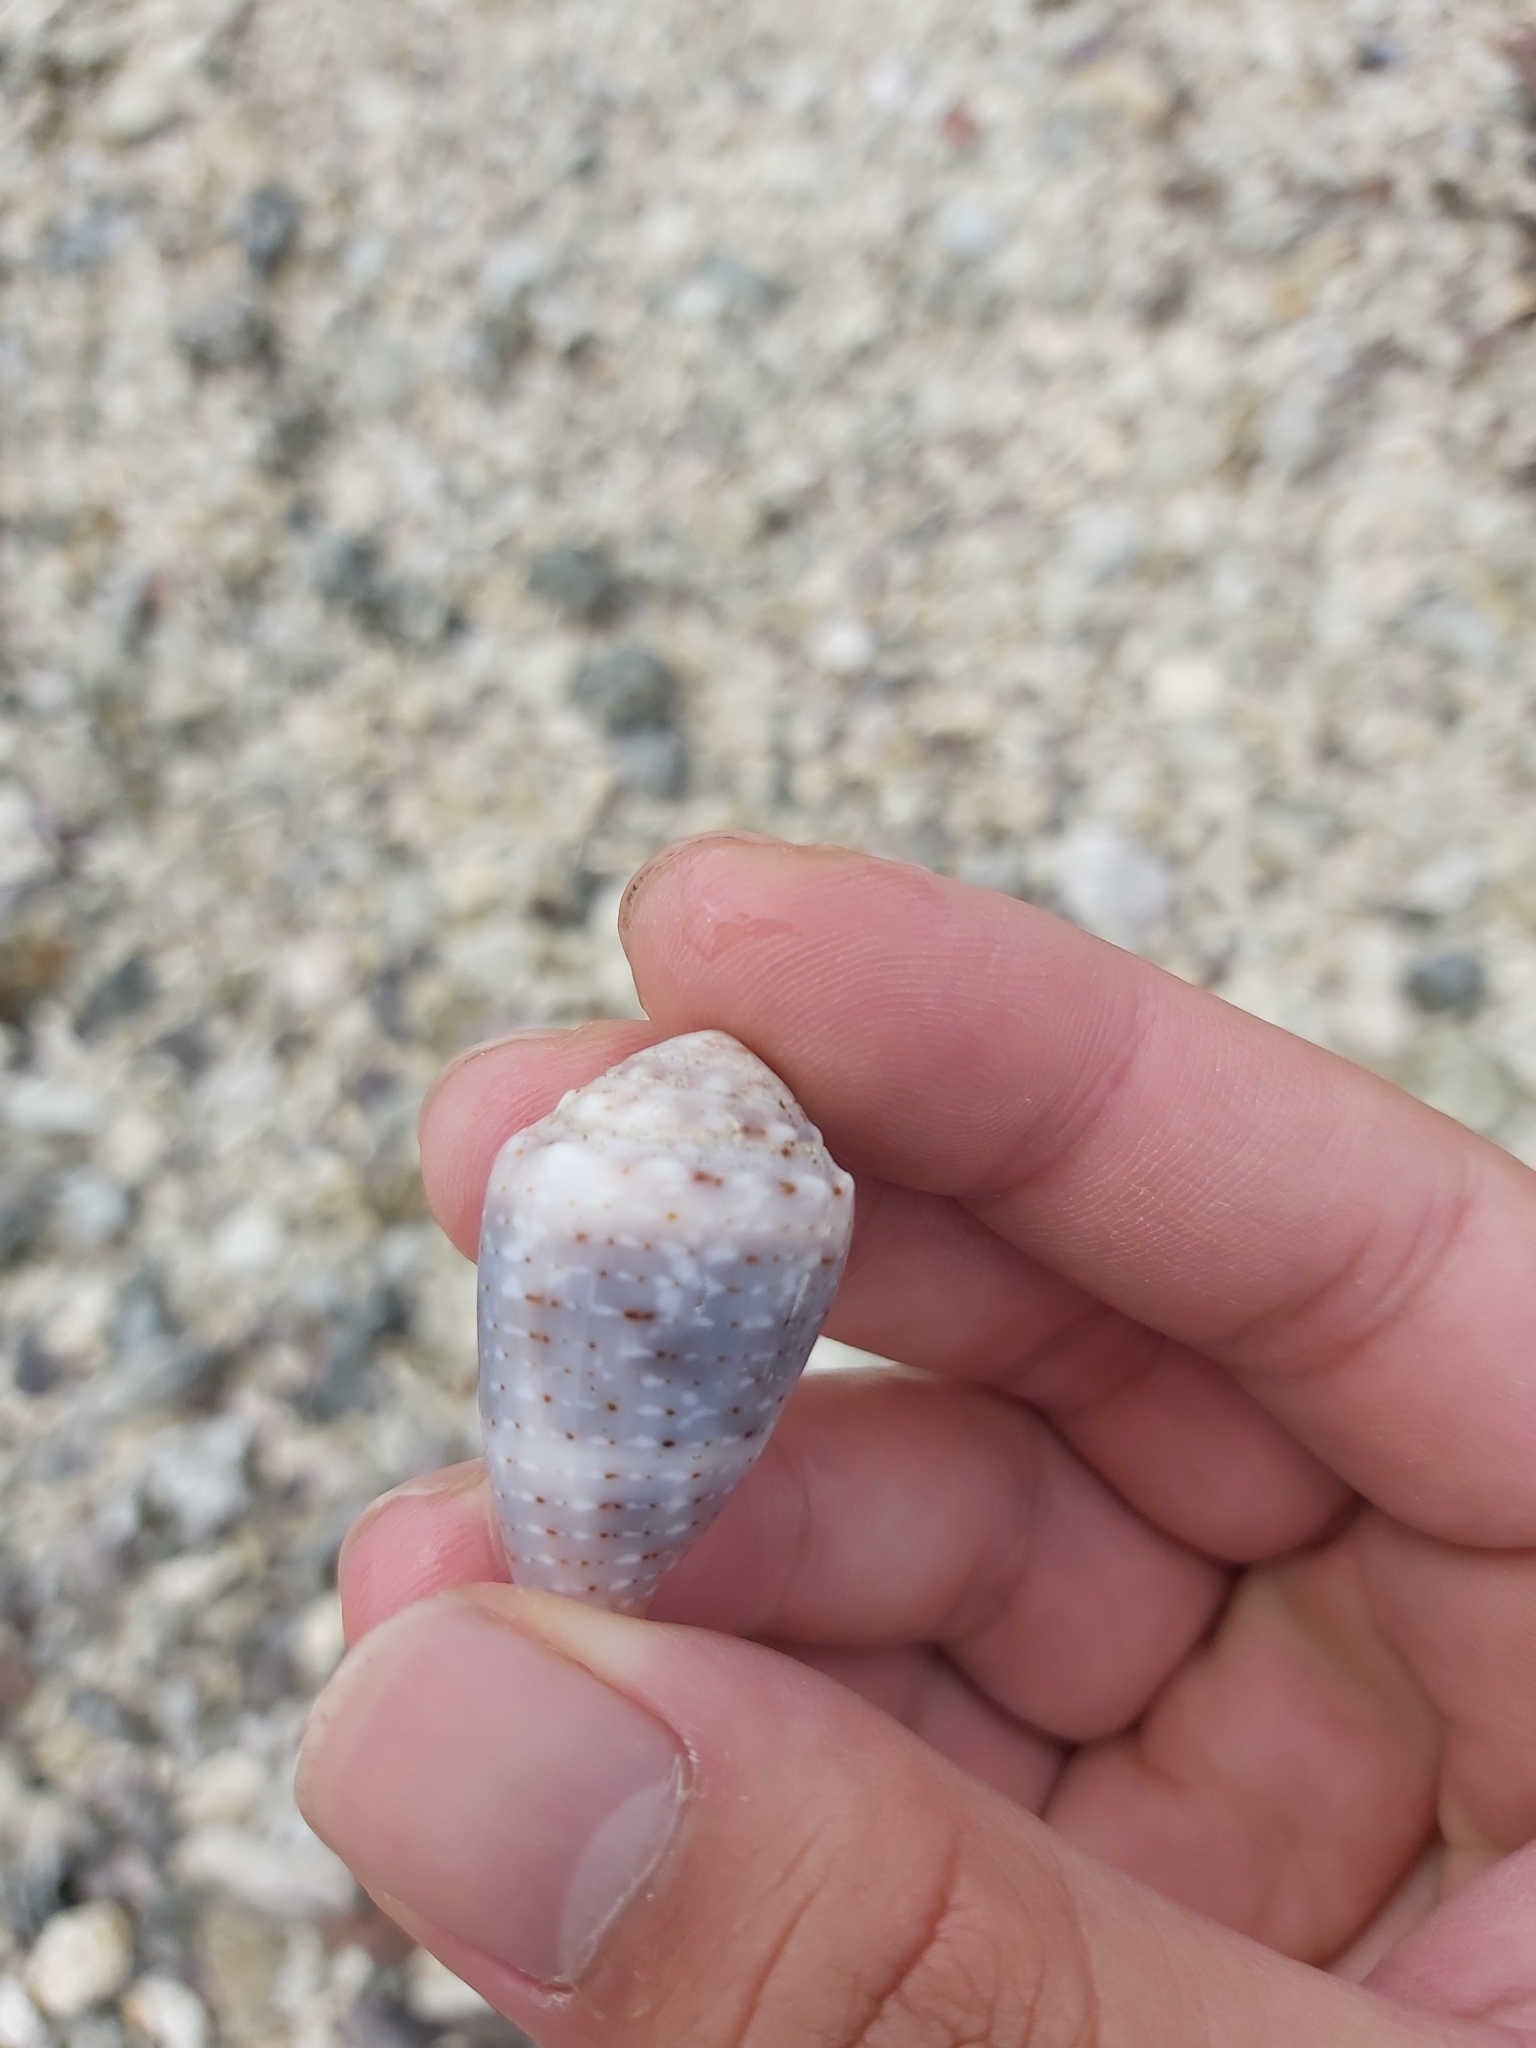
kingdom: Animalia
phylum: Mollusca
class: Gastropoda
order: Neogastropoda
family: Conidae
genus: Conus
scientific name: Conus coronatus
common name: Coronated cone
